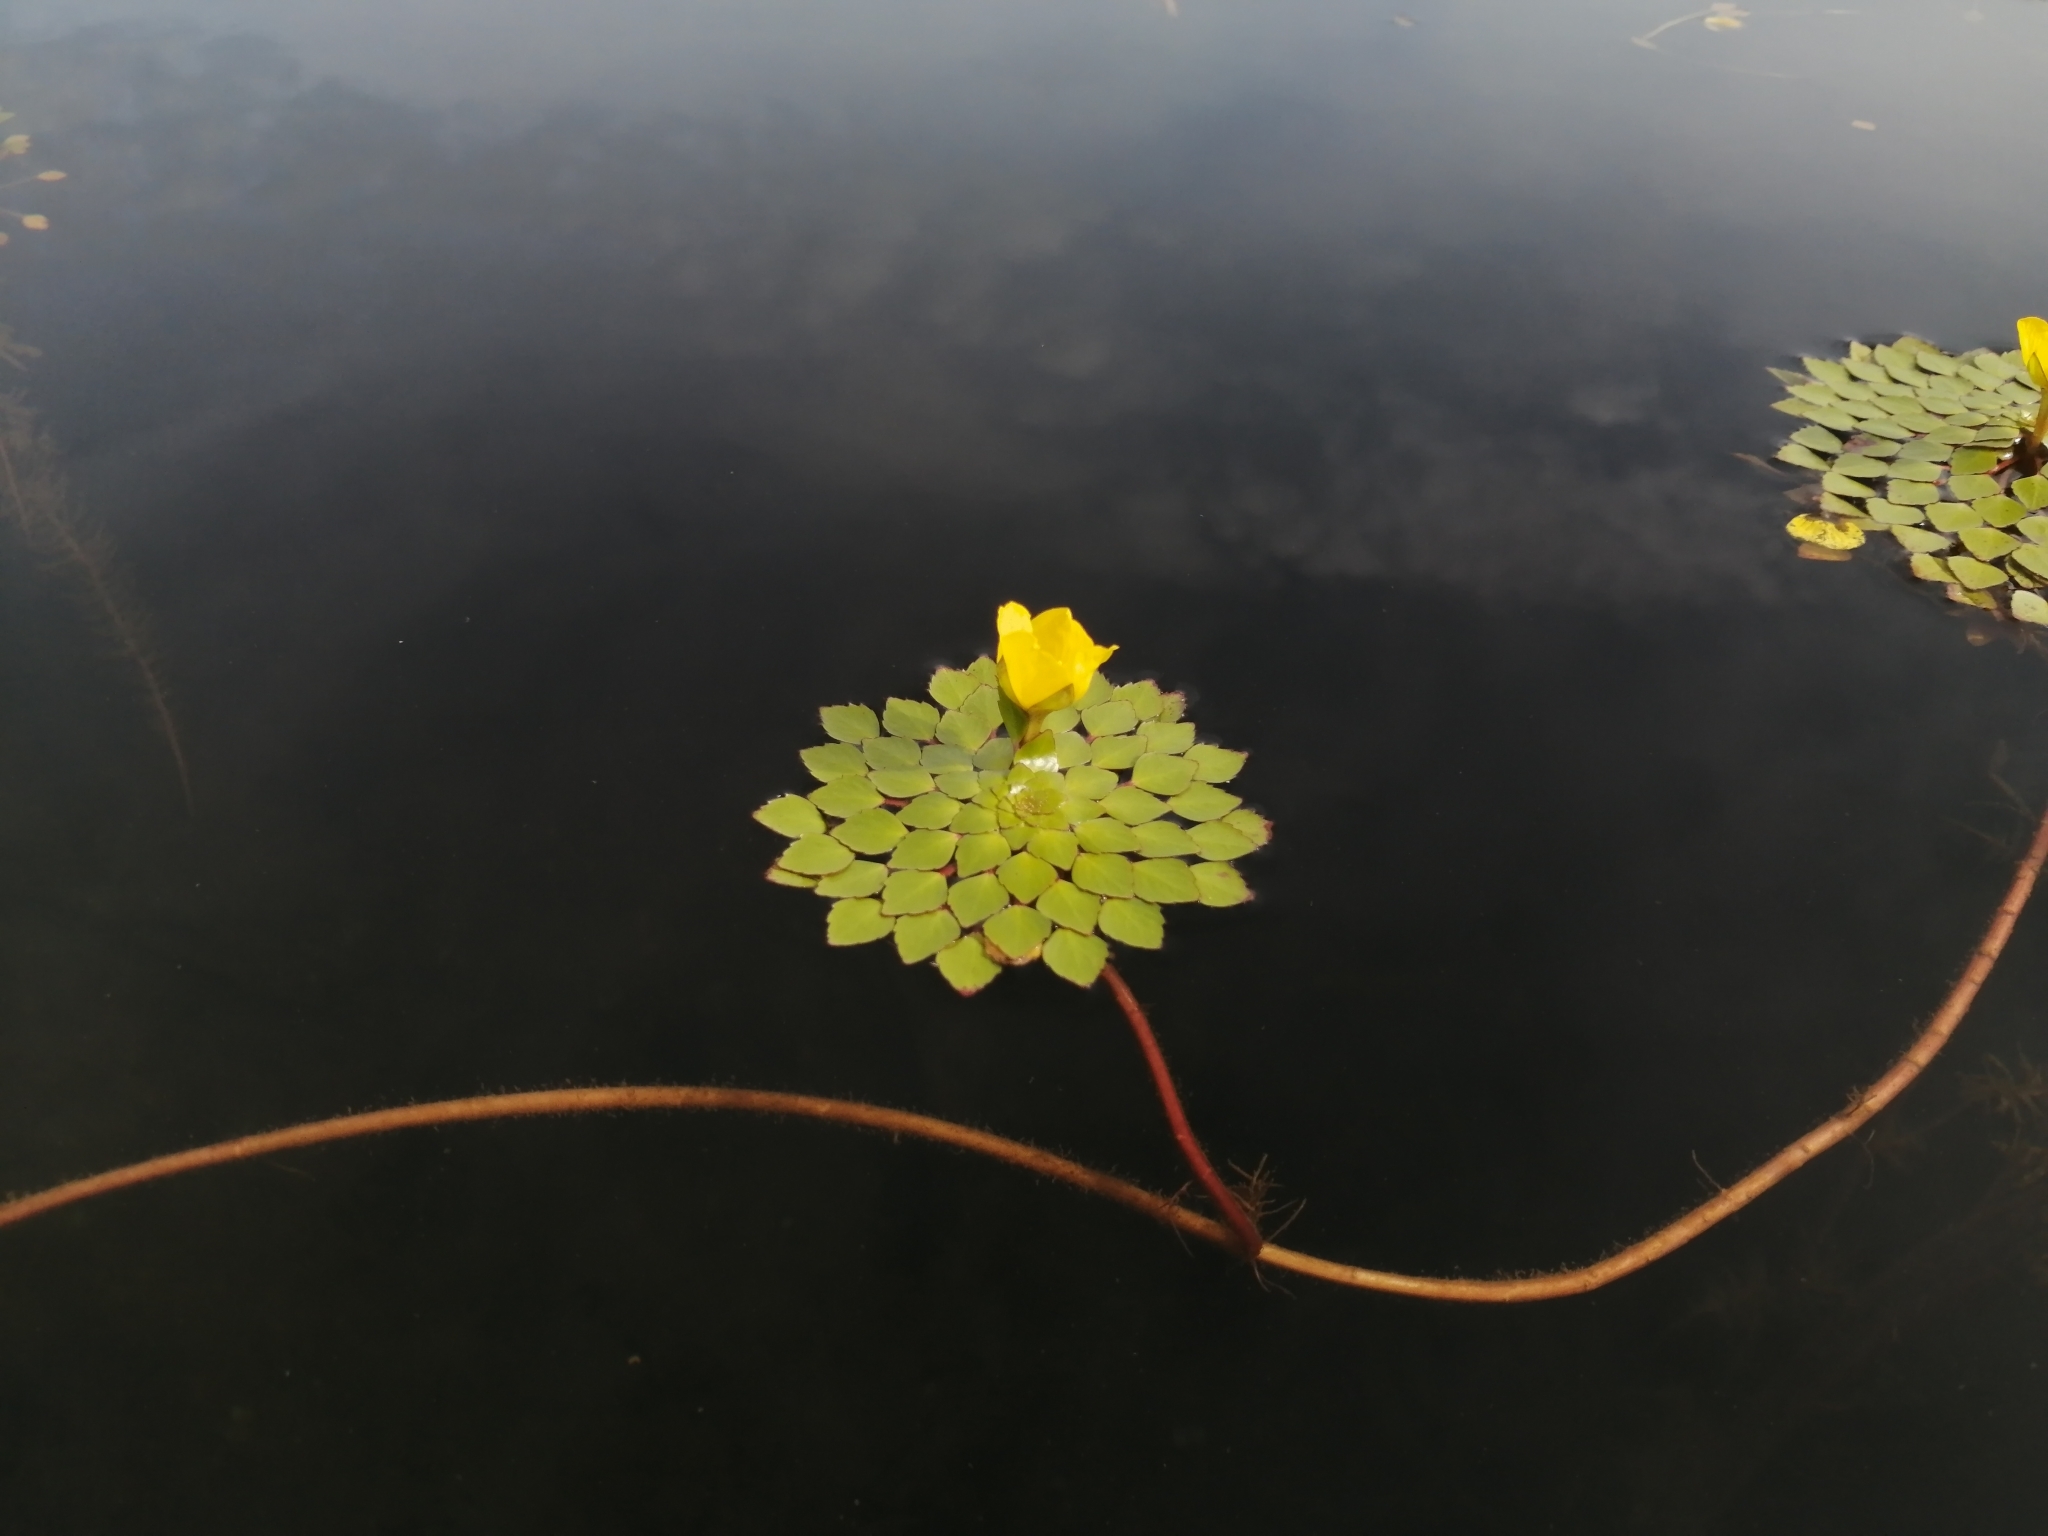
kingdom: Plantae
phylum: Tracheophyta
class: Magnoliopsida
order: Myrtales
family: Onagraceae
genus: Ludwigia
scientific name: Ludwigia sedioides
